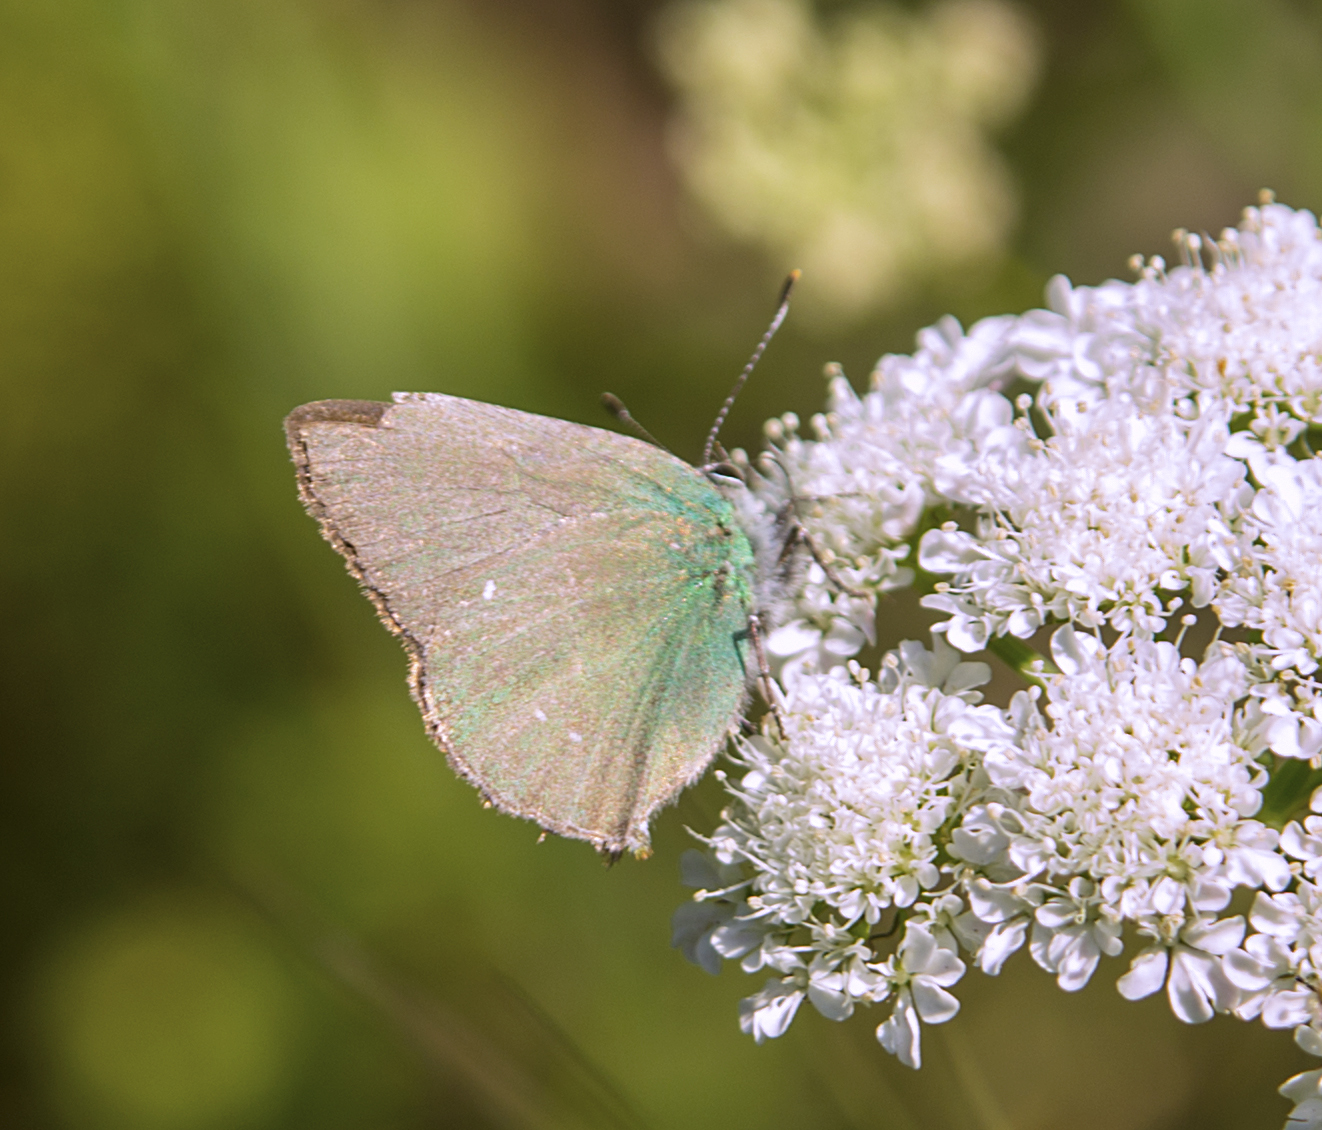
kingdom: Animalia
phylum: Arthropoda
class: Insecta
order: Lepidoptera
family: Lycaenidae
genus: Callophrys
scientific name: Callophrys rubi
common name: Green hairstreak
